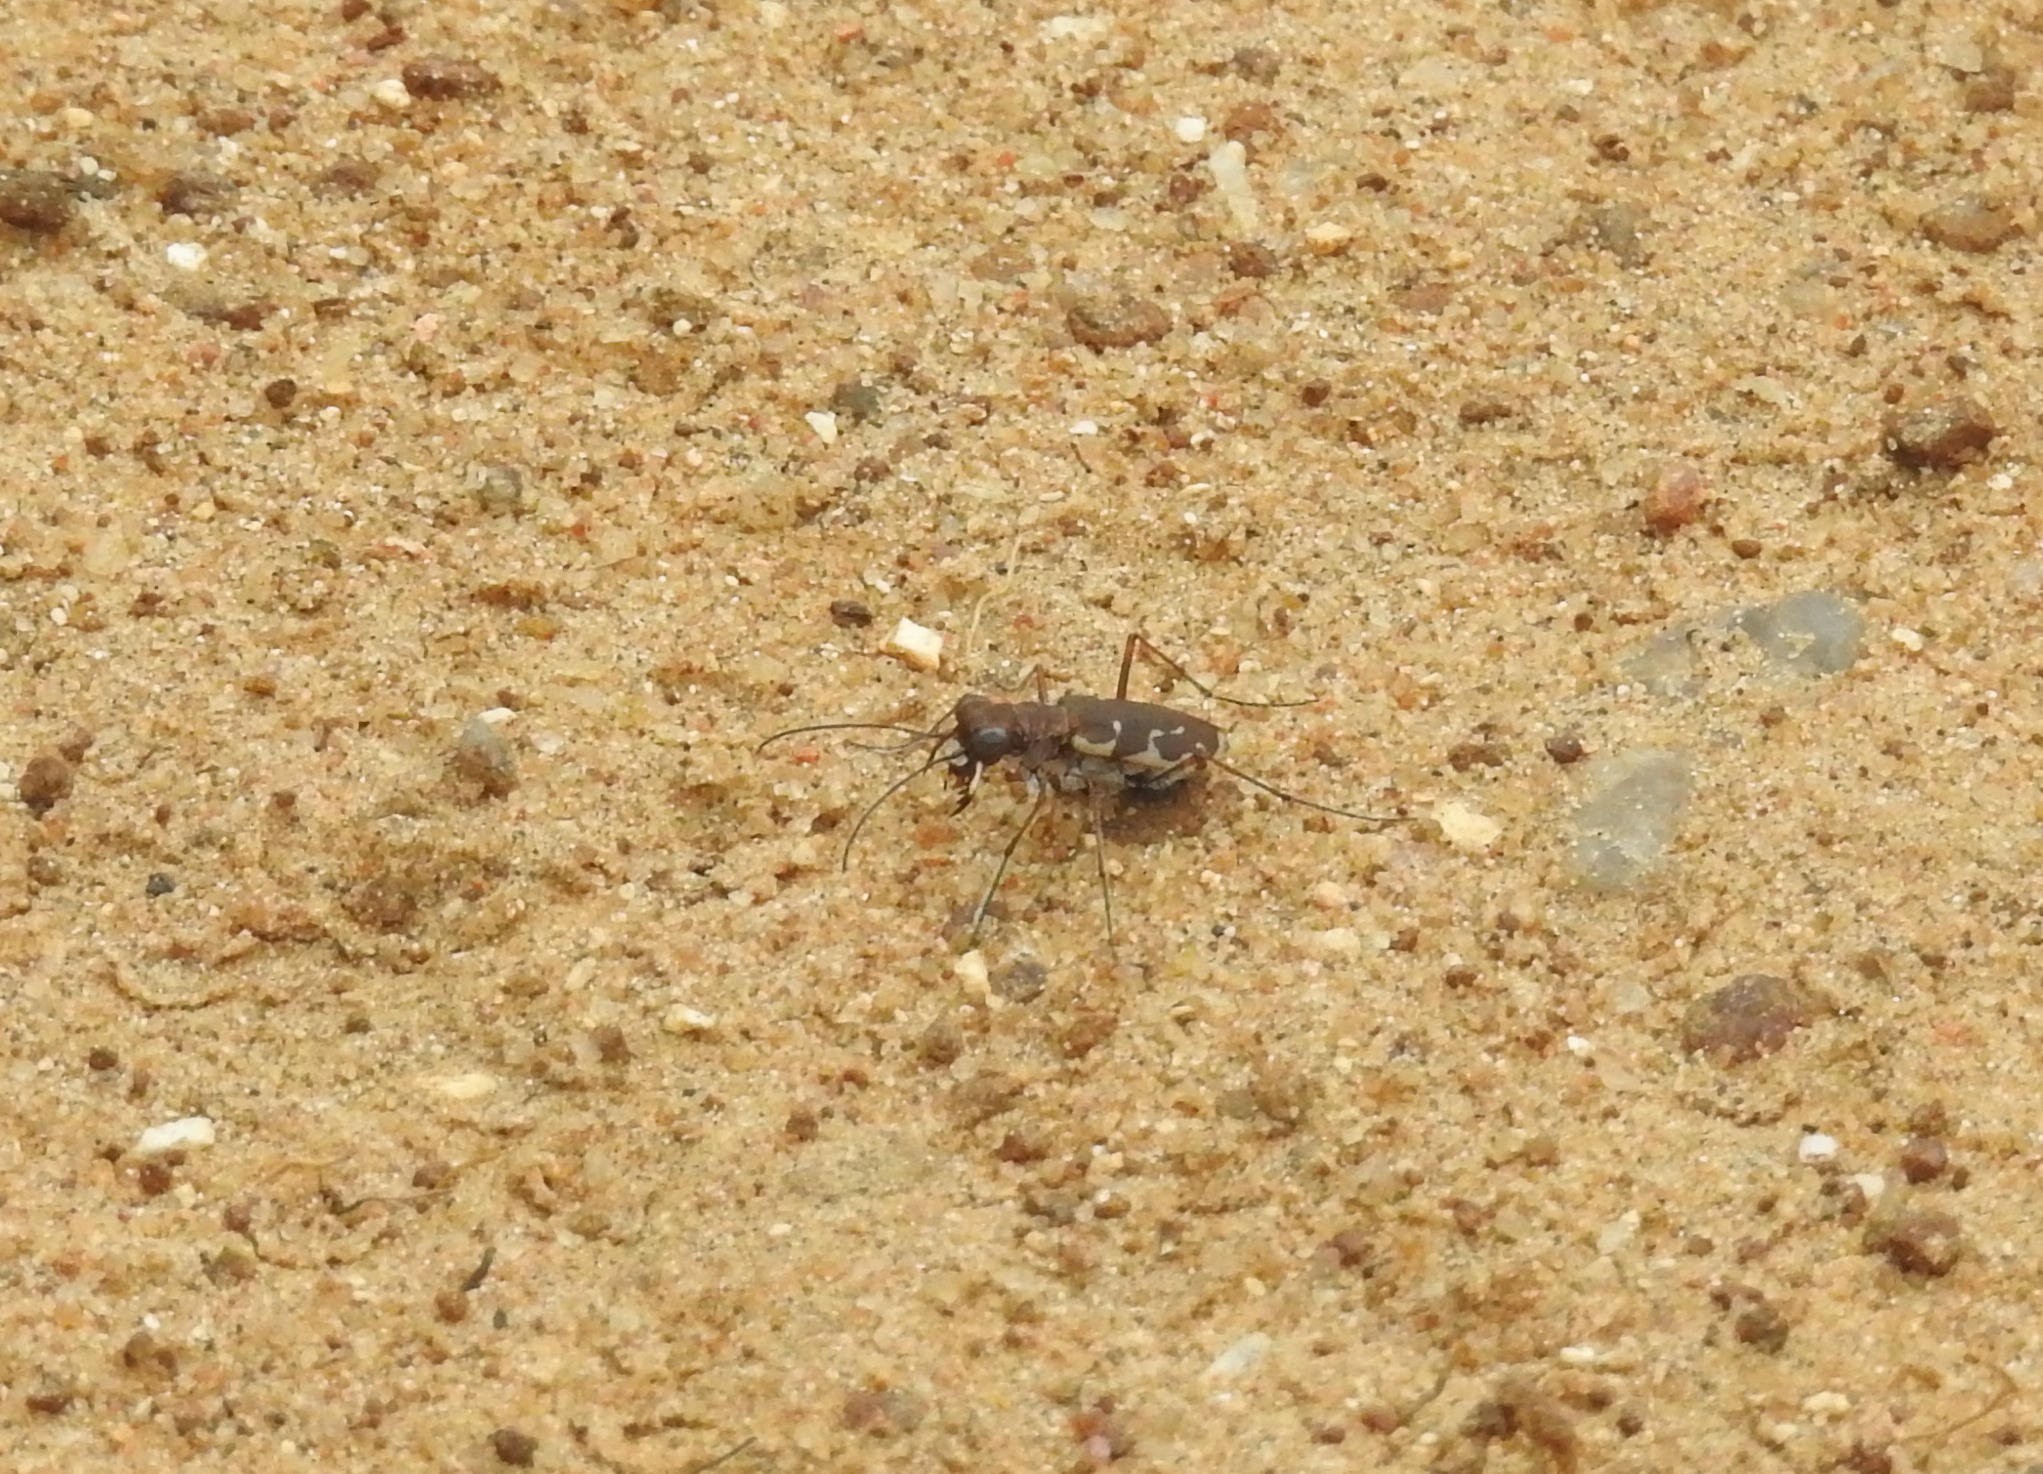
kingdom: Animalia
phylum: Arthropoda
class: Insecta
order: Coleoptera
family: Carabidae
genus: Myriochila
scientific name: Myriochila fastidiosa
